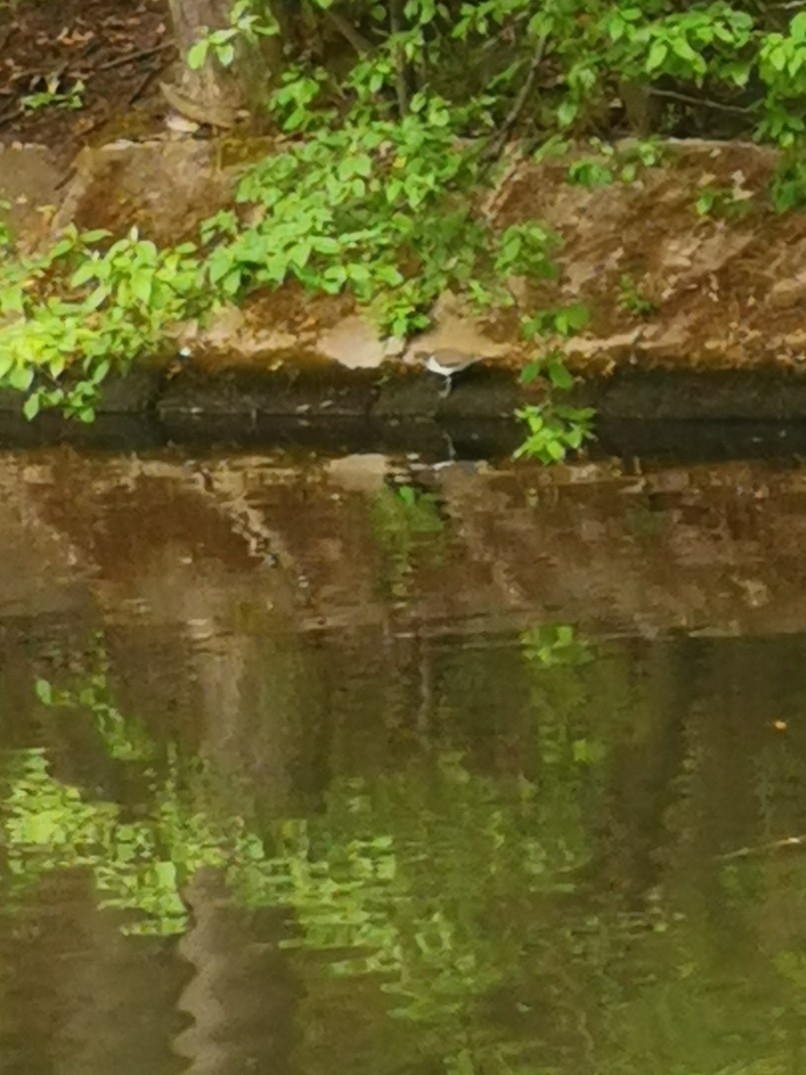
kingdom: Animalia
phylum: Chordata
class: Aves
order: Charadriiformes
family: Scolopacidae
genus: Actitis
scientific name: Actitis hypoleucos
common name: Common sandpiper
